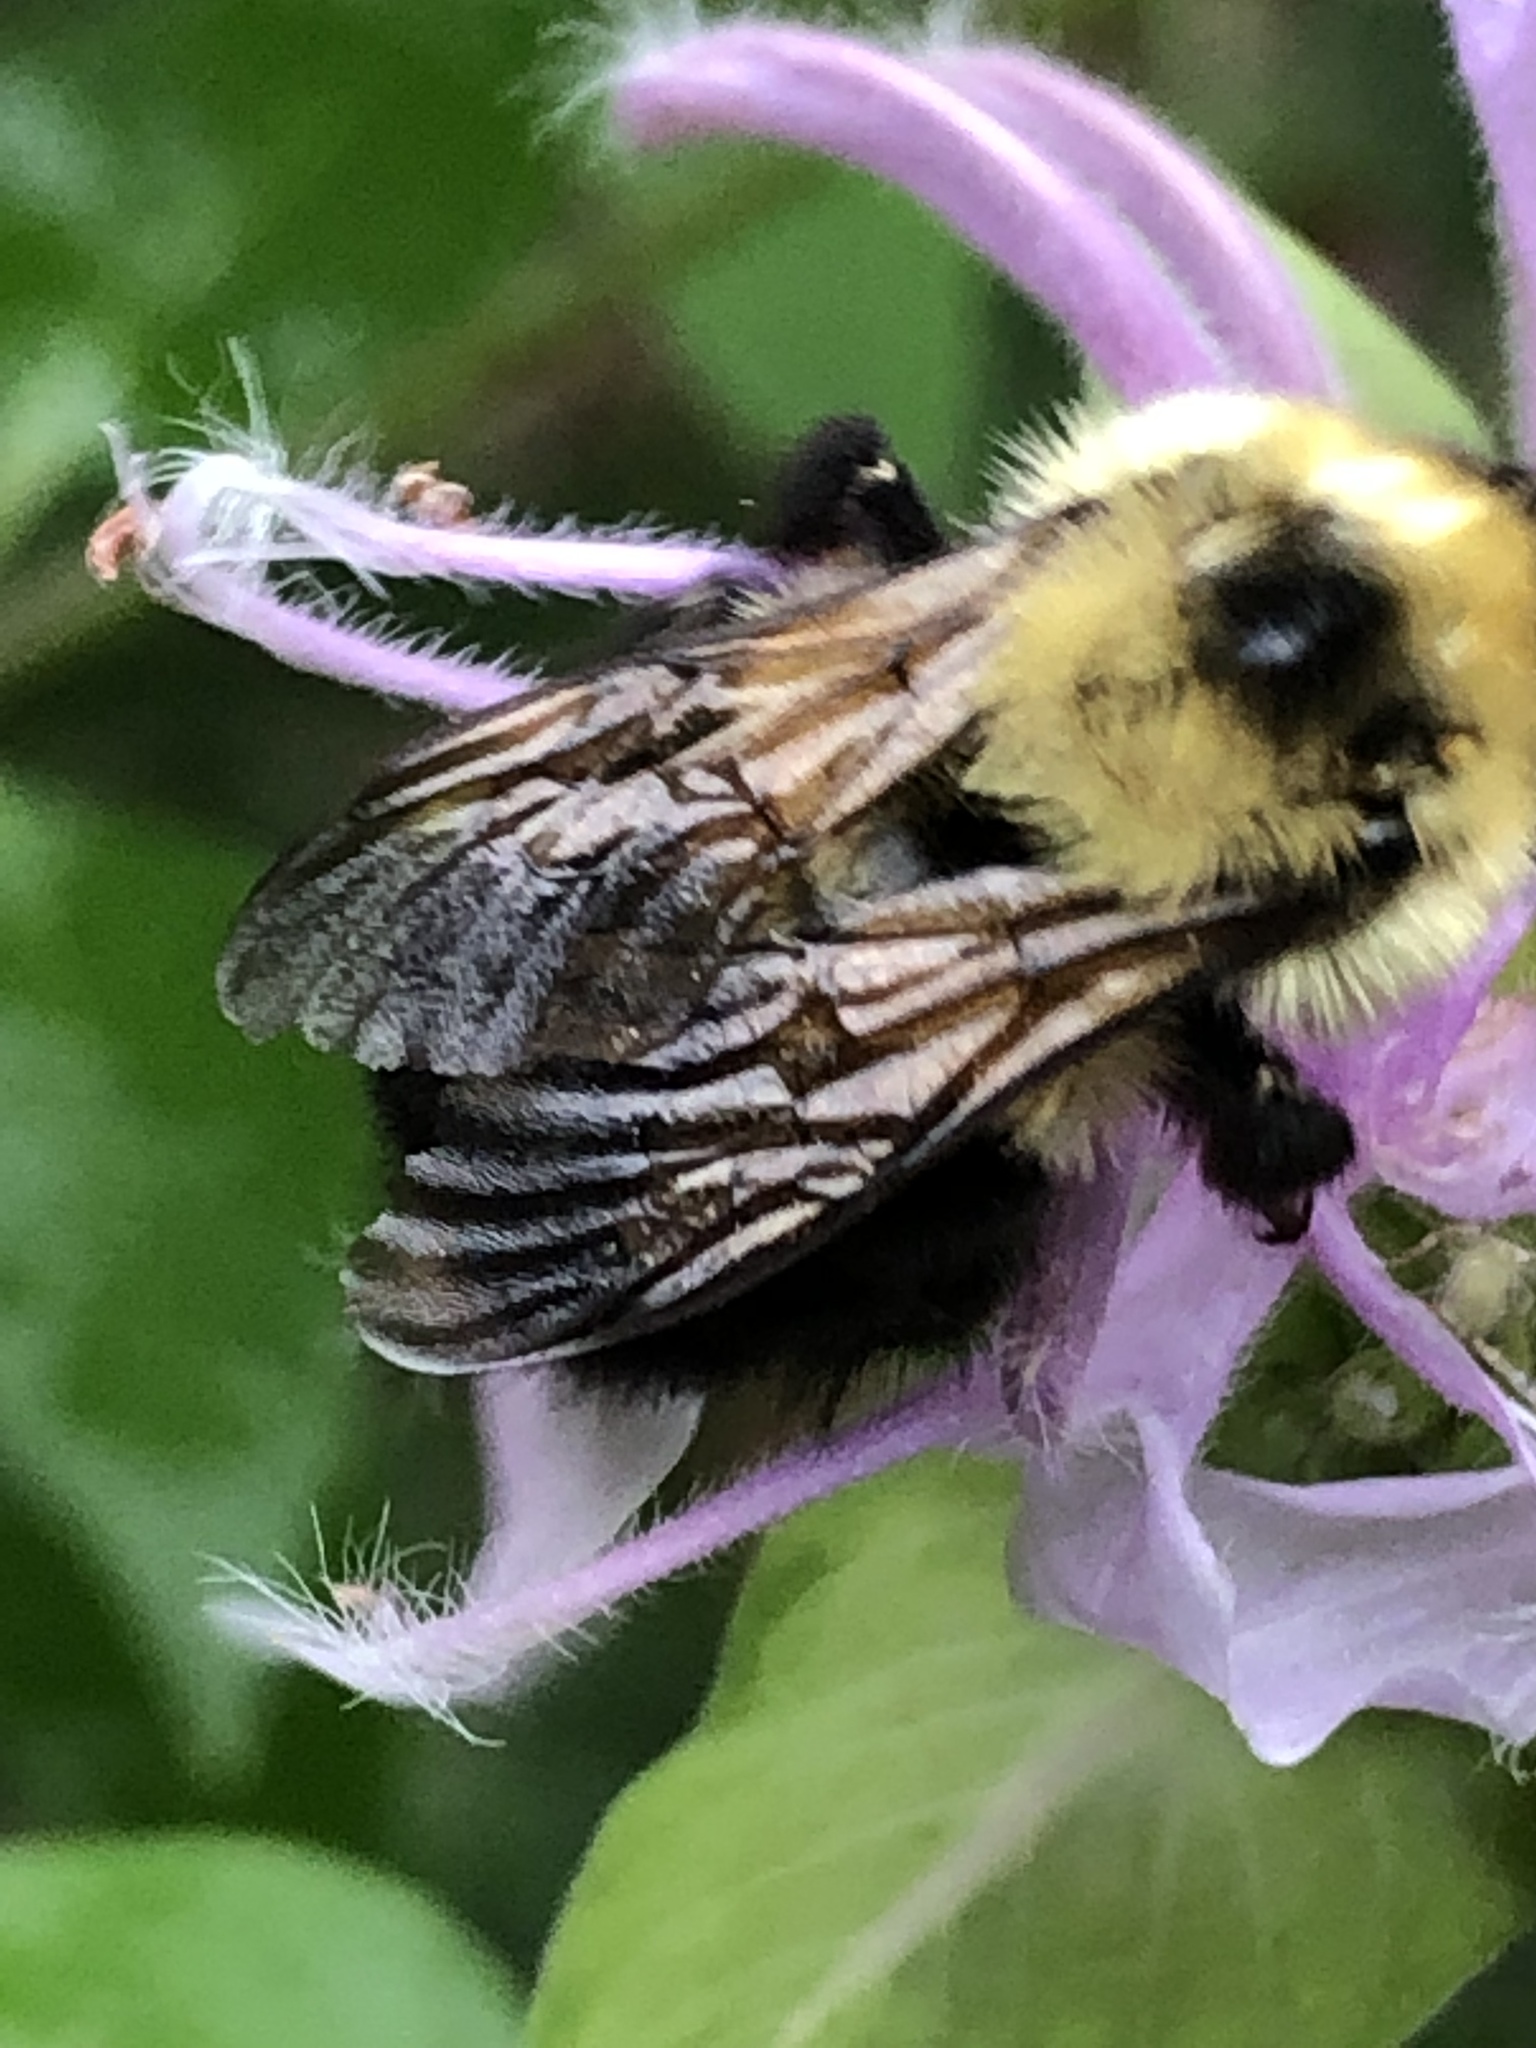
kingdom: Animalia
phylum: Arthropoda
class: Insecta
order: Hymenoptera
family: Apidae
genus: Bombus
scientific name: Bombus bimaculatus
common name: Two-spotted bumble bee
